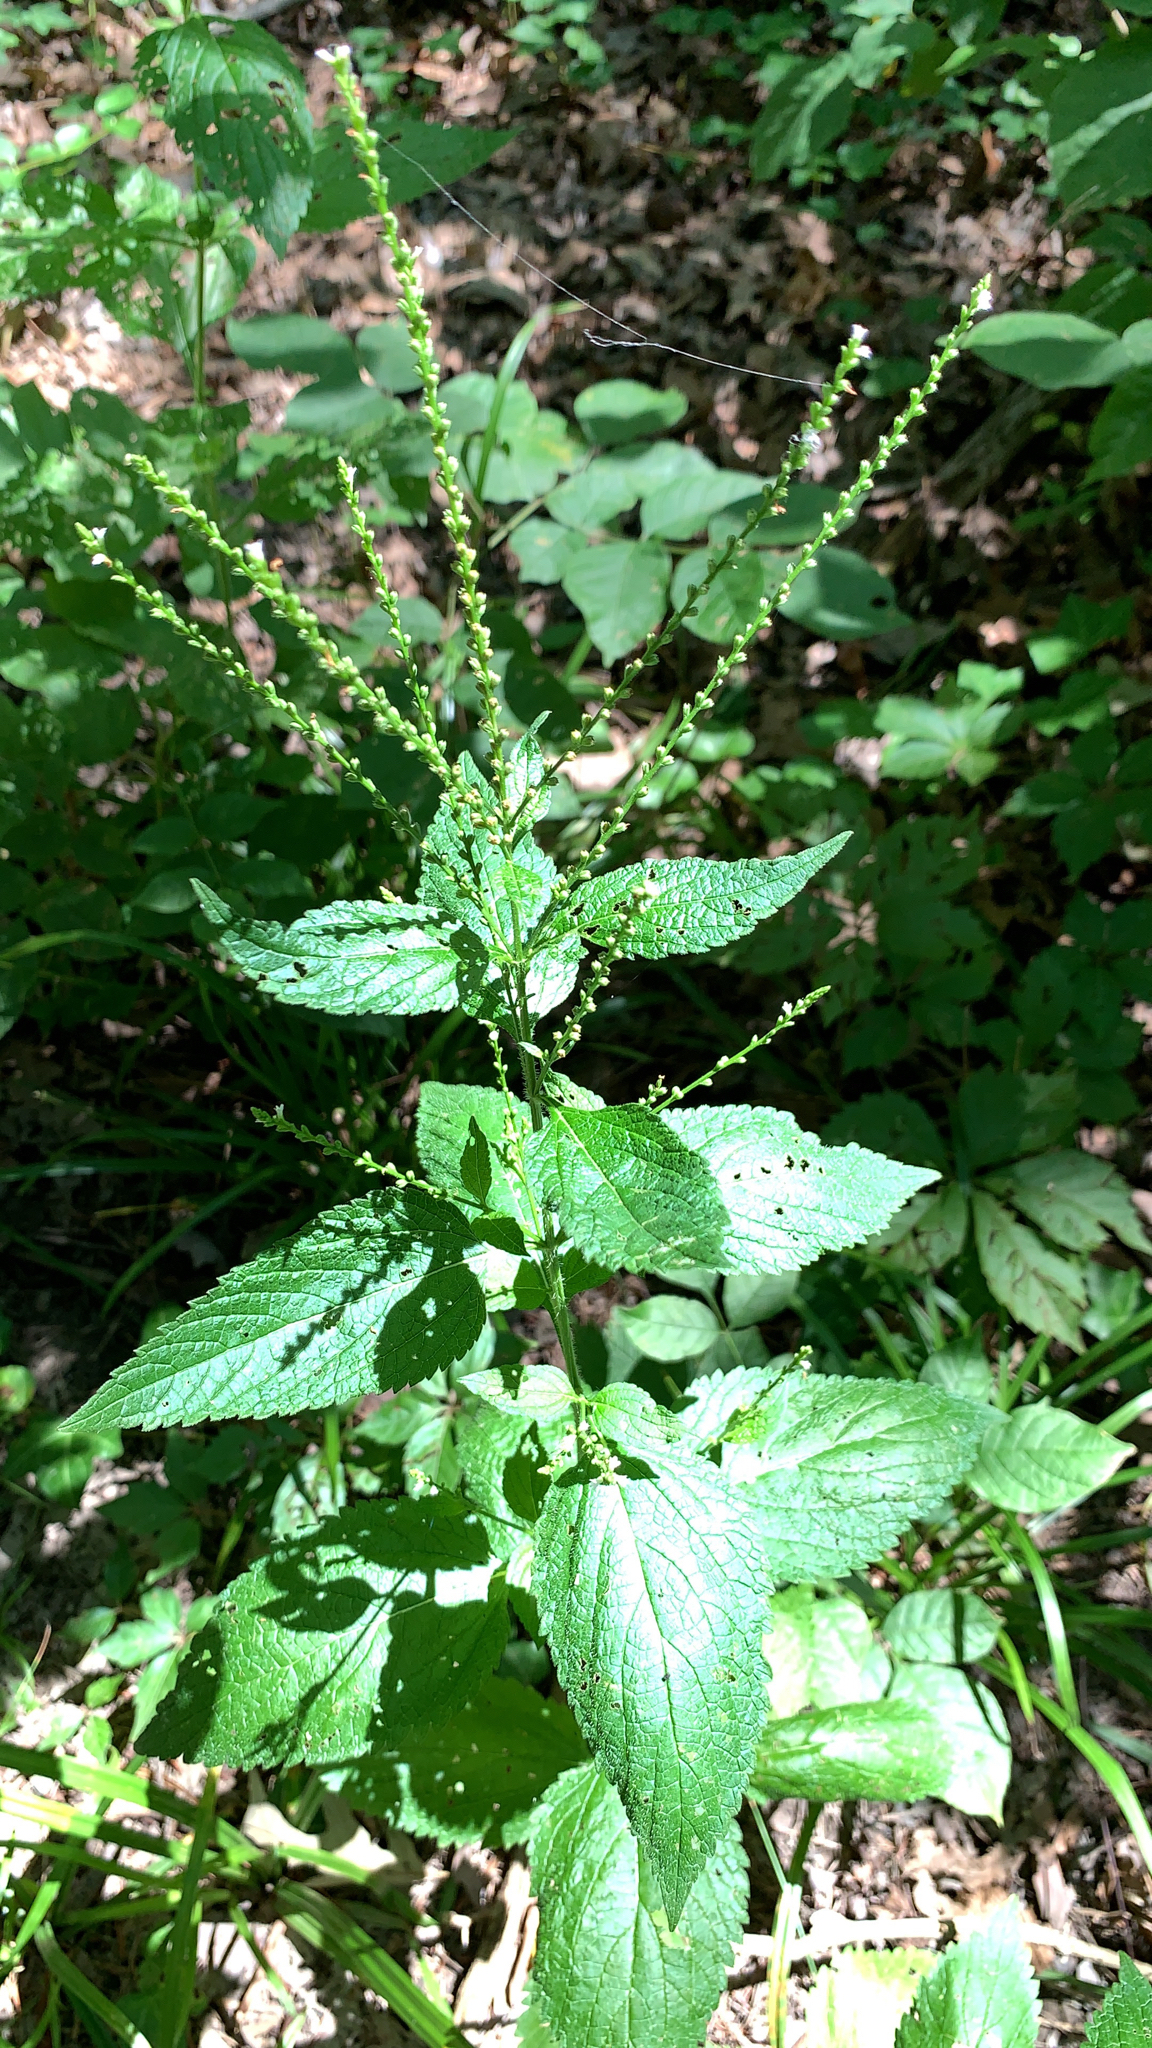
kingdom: Plantae
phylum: Tracheophyta
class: Magnoliopsida
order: Lamiales
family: Verbenaceae
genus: Verbena
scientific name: Verbena urticifolia
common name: Nettle-leaved vervain
